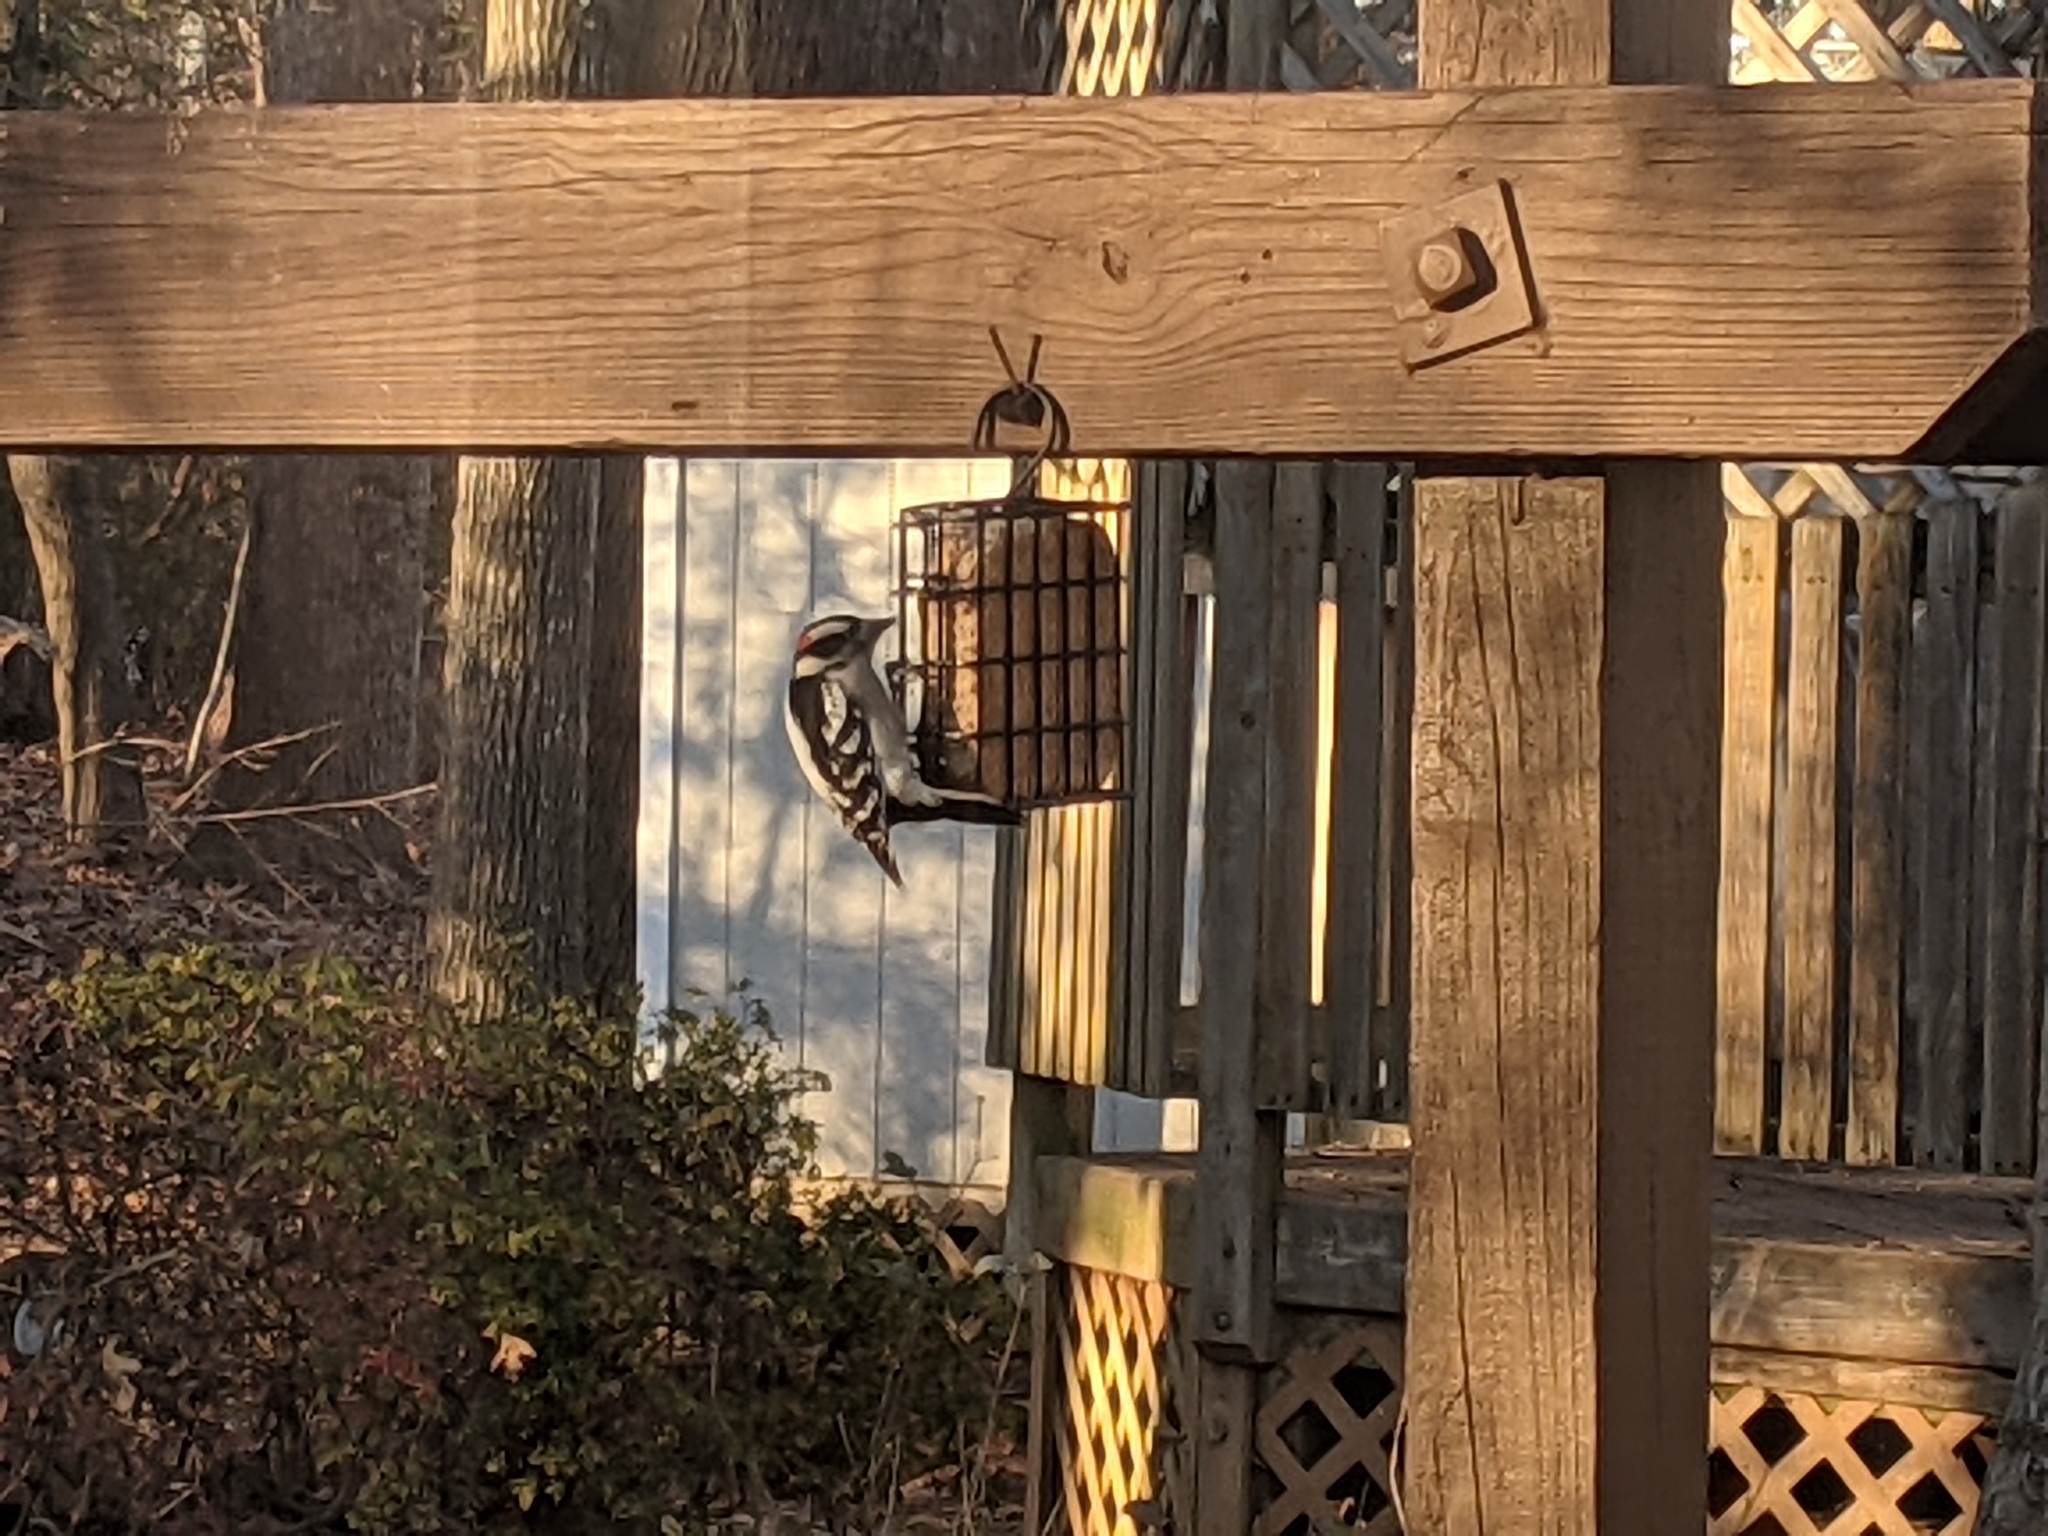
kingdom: Animalia
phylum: Chordata
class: Aves
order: Piciformes
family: Picidae
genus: Dryobates
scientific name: Dryobates pubescens
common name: Downy woodpecker
